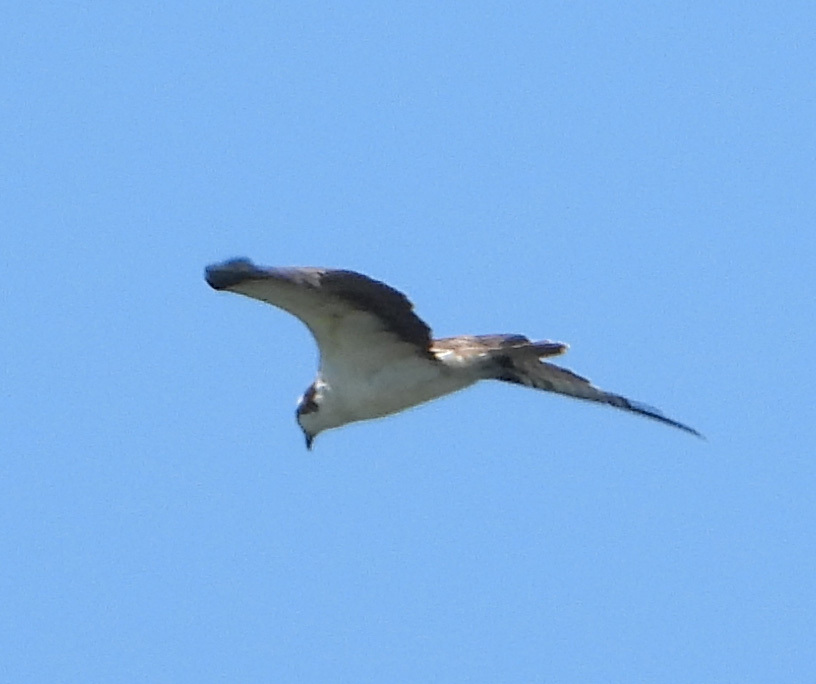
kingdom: Animalia
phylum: Chordata
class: Aves
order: Accipitriformes
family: Pandionidae
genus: Pandion
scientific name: Pandion haliaetus
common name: Osprey
